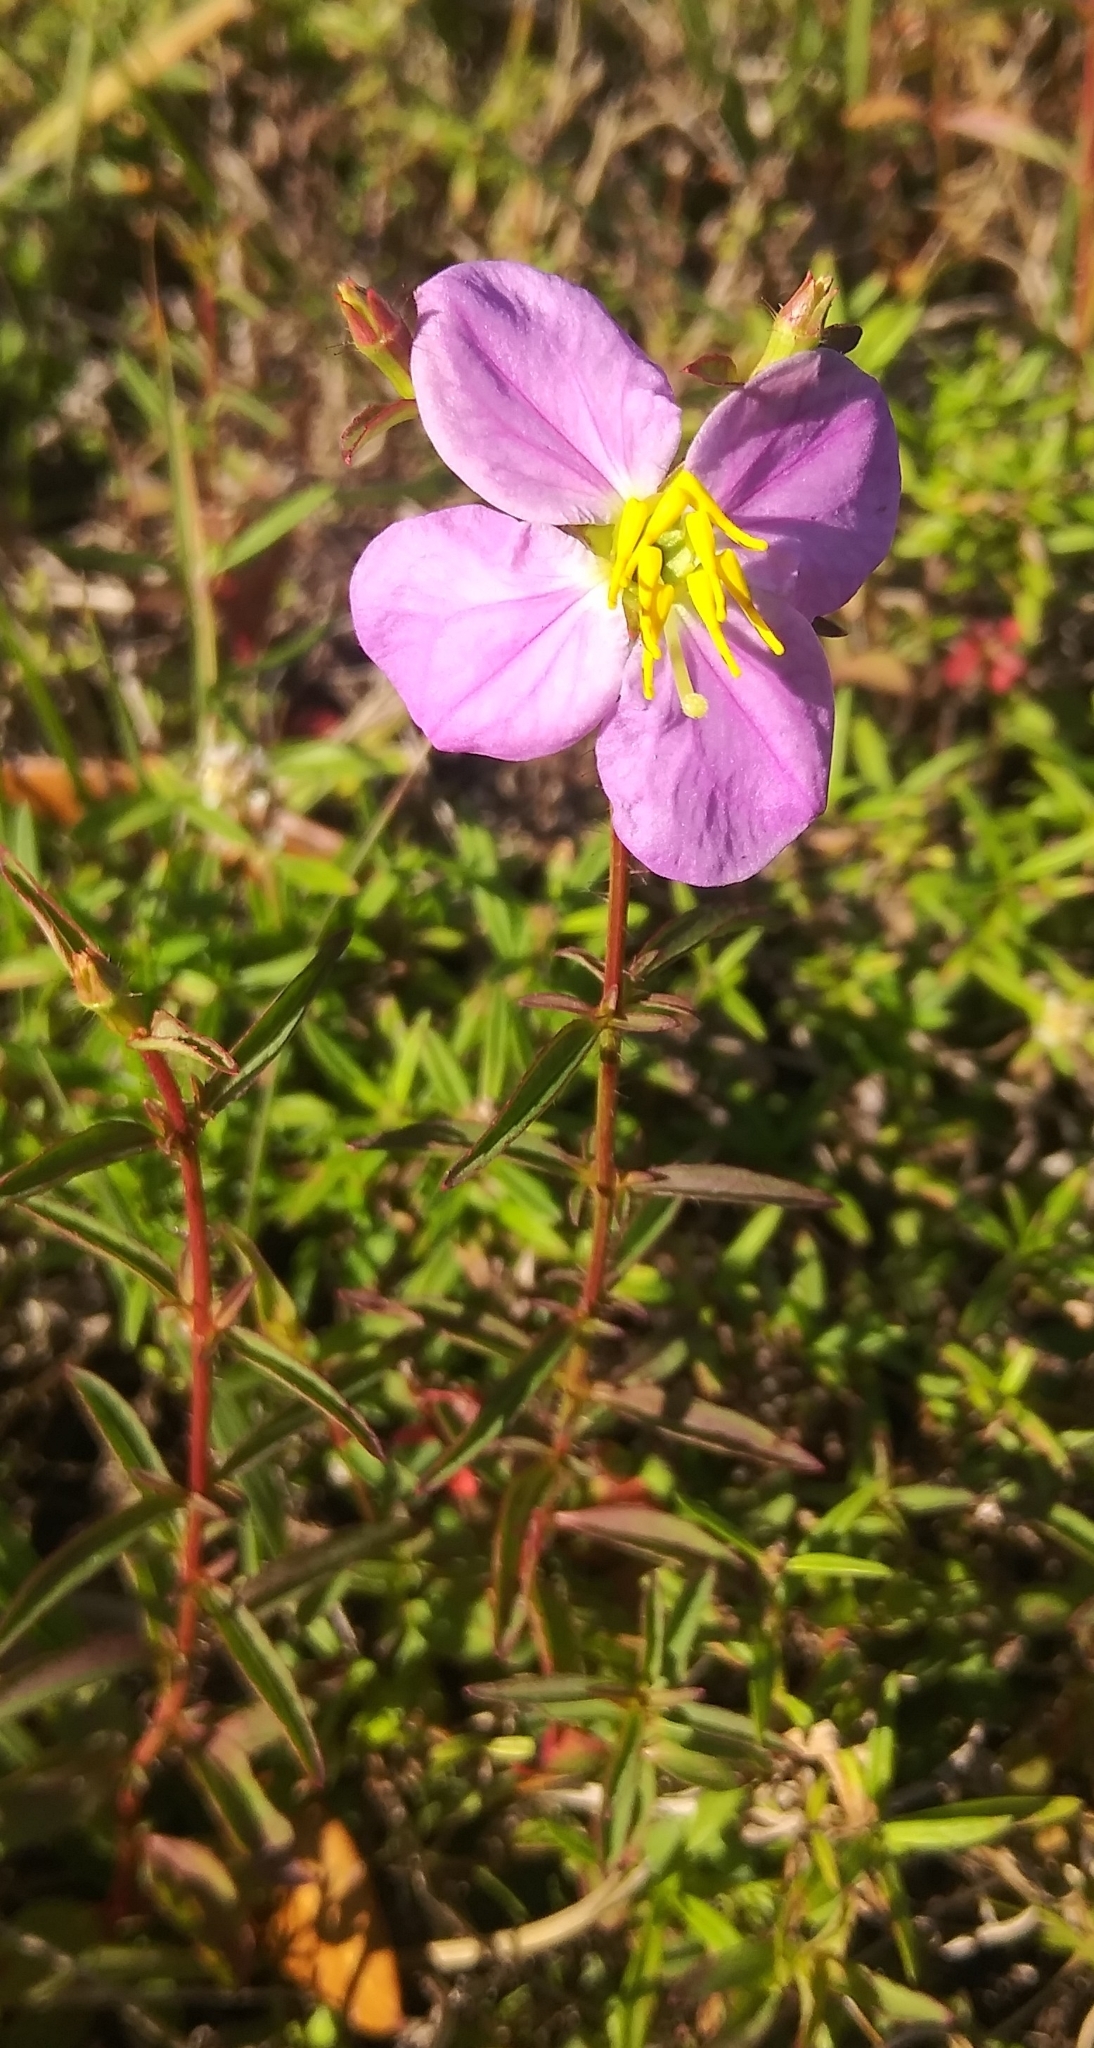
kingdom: Plantae
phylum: Tracheophyta
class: Magnoliopsida
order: Myrtales
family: Melastomataceae
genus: Rhexia
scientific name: Rhexia cubensis
